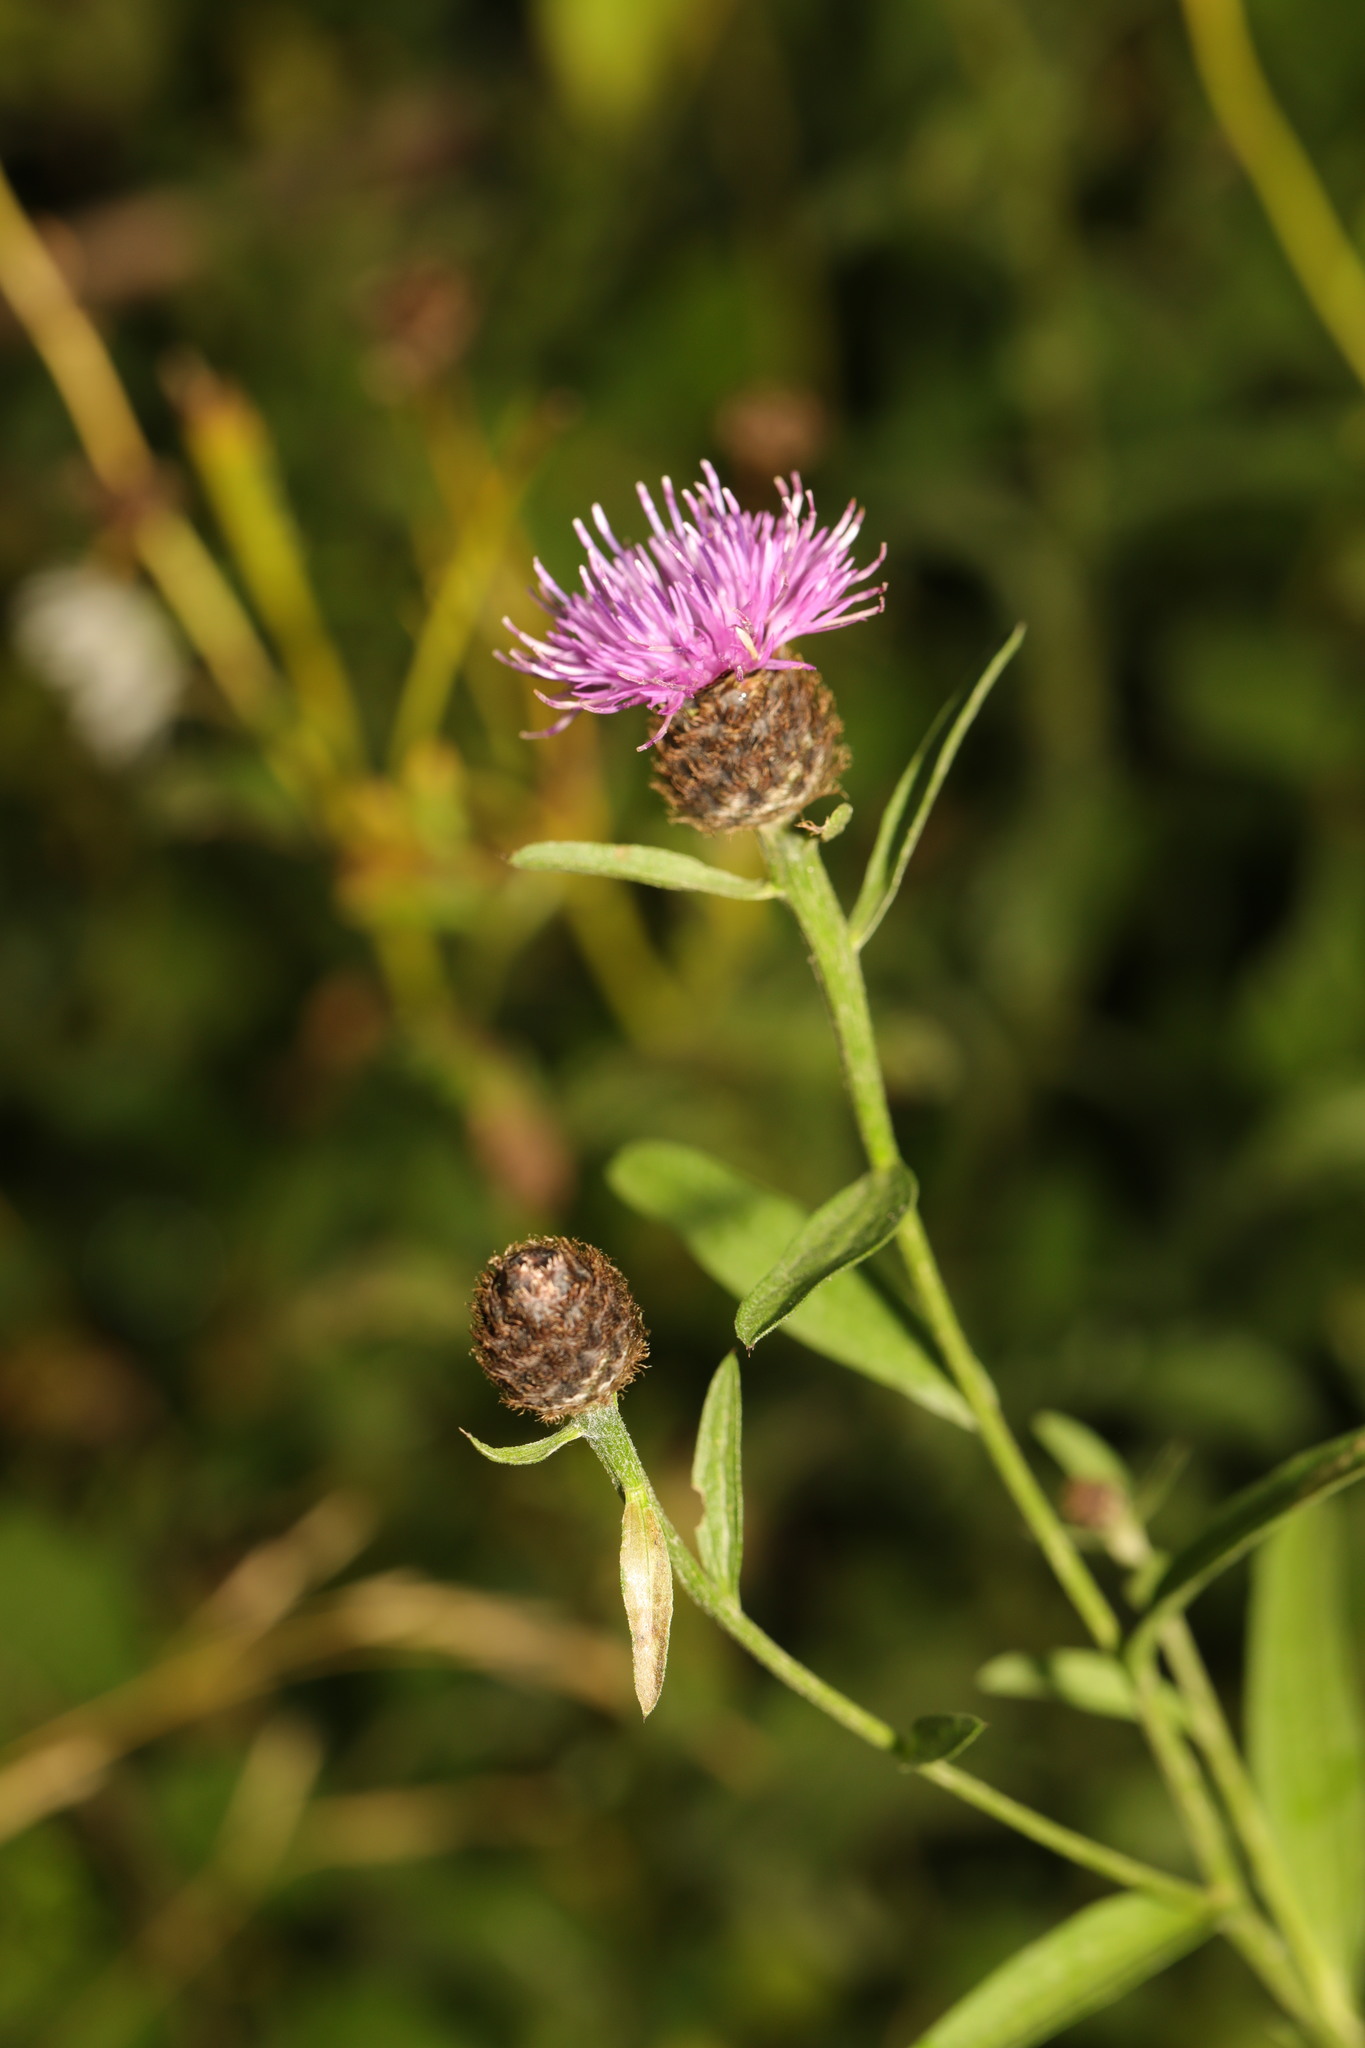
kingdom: Plantae
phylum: Tracheophyta
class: Magnoliopsida
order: Asterales
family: Asteraceae
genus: Centaurea
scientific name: Centaurea nigra
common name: Lesser knapweed
